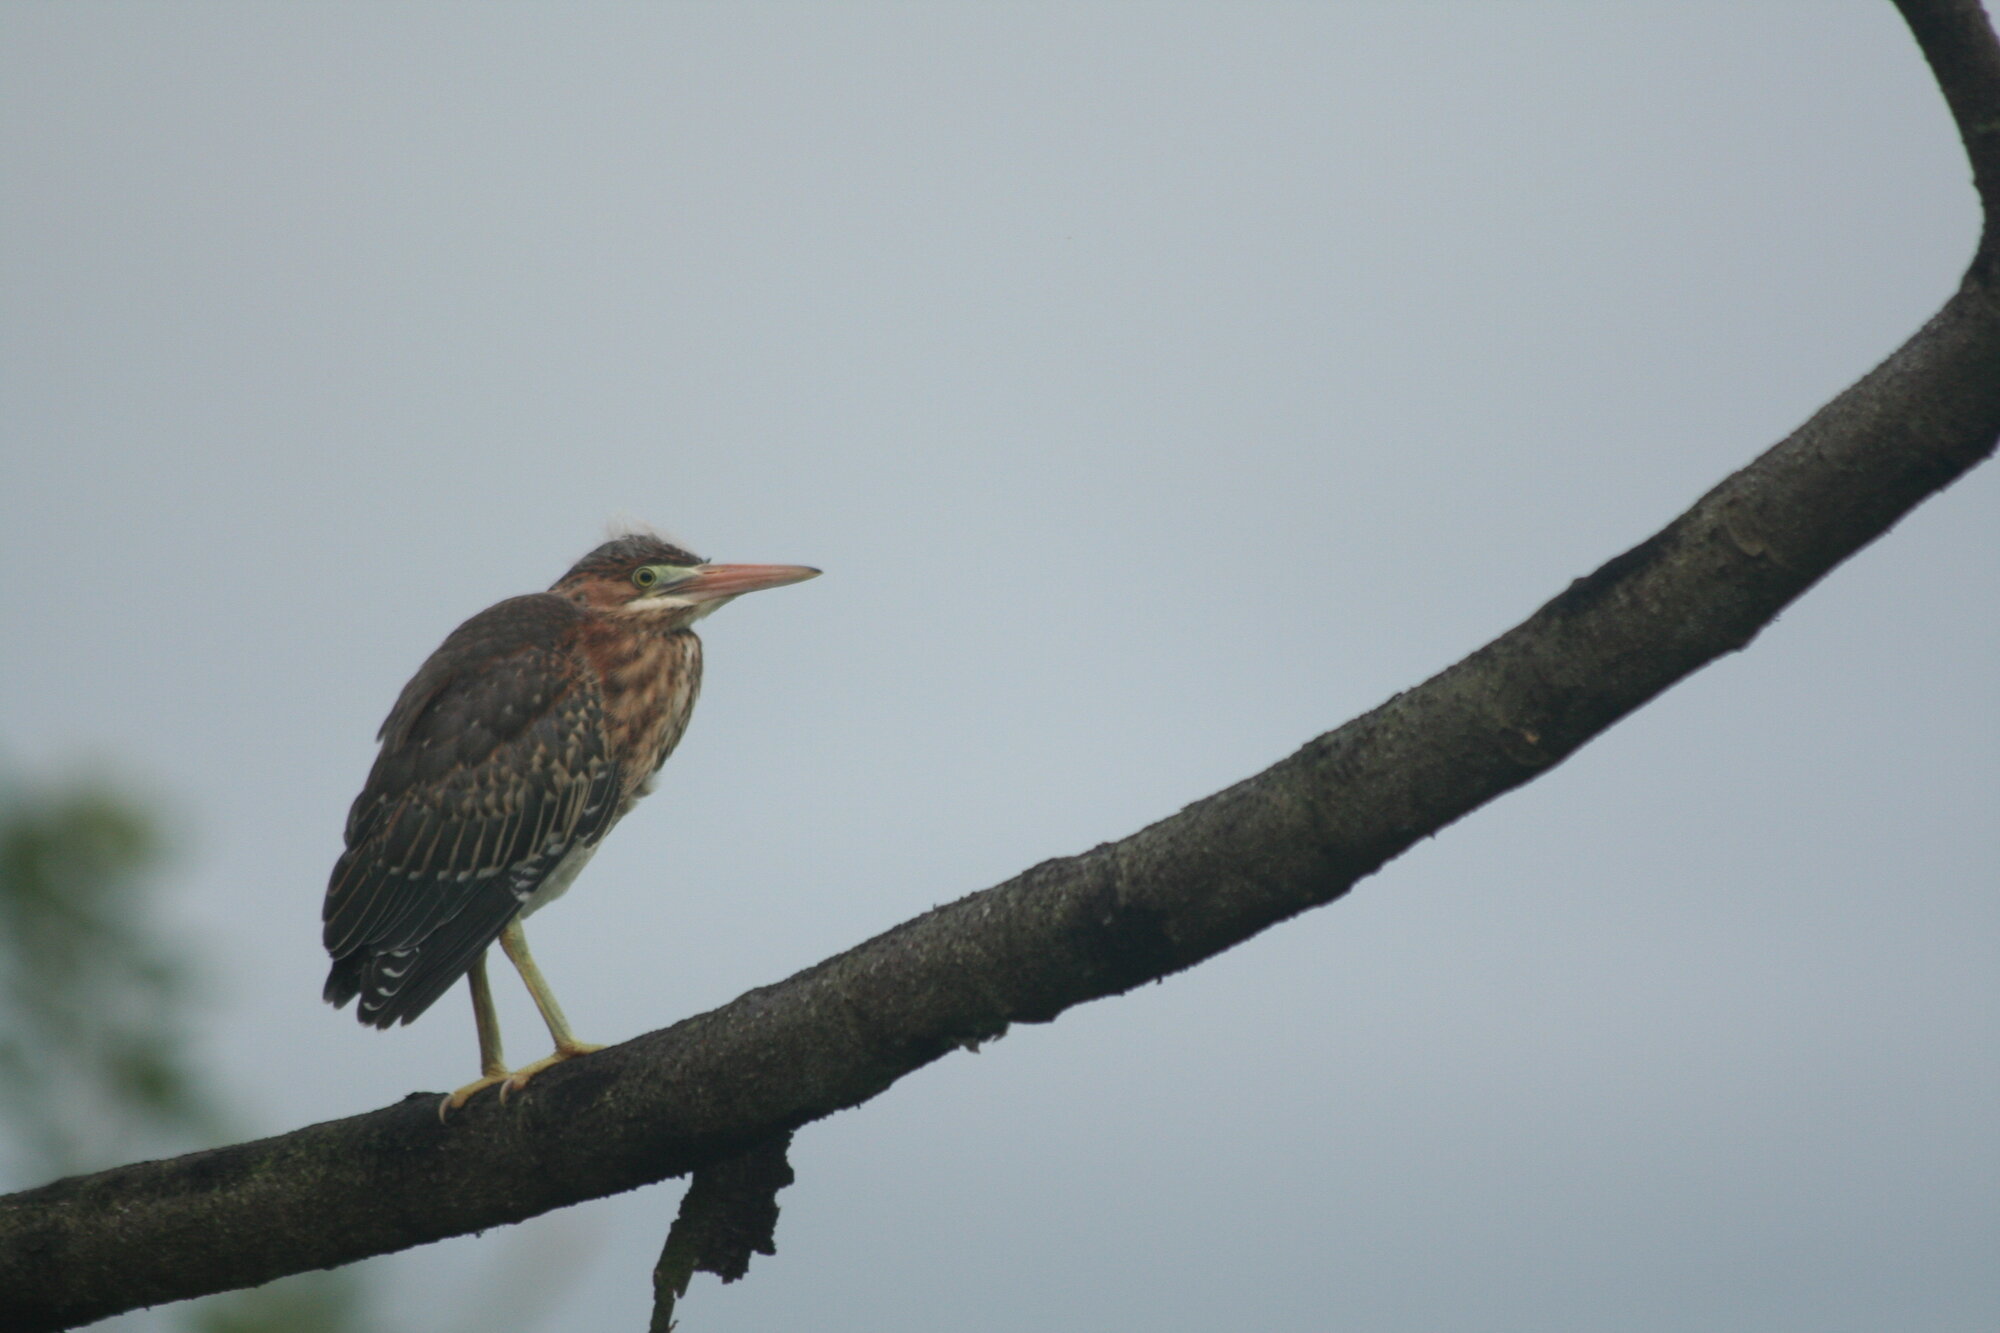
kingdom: Animalia
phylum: Chordata
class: Aves
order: Pelecaniformes
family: Ardeidae
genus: Butorides
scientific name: Butorides virescens
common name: Green heron
